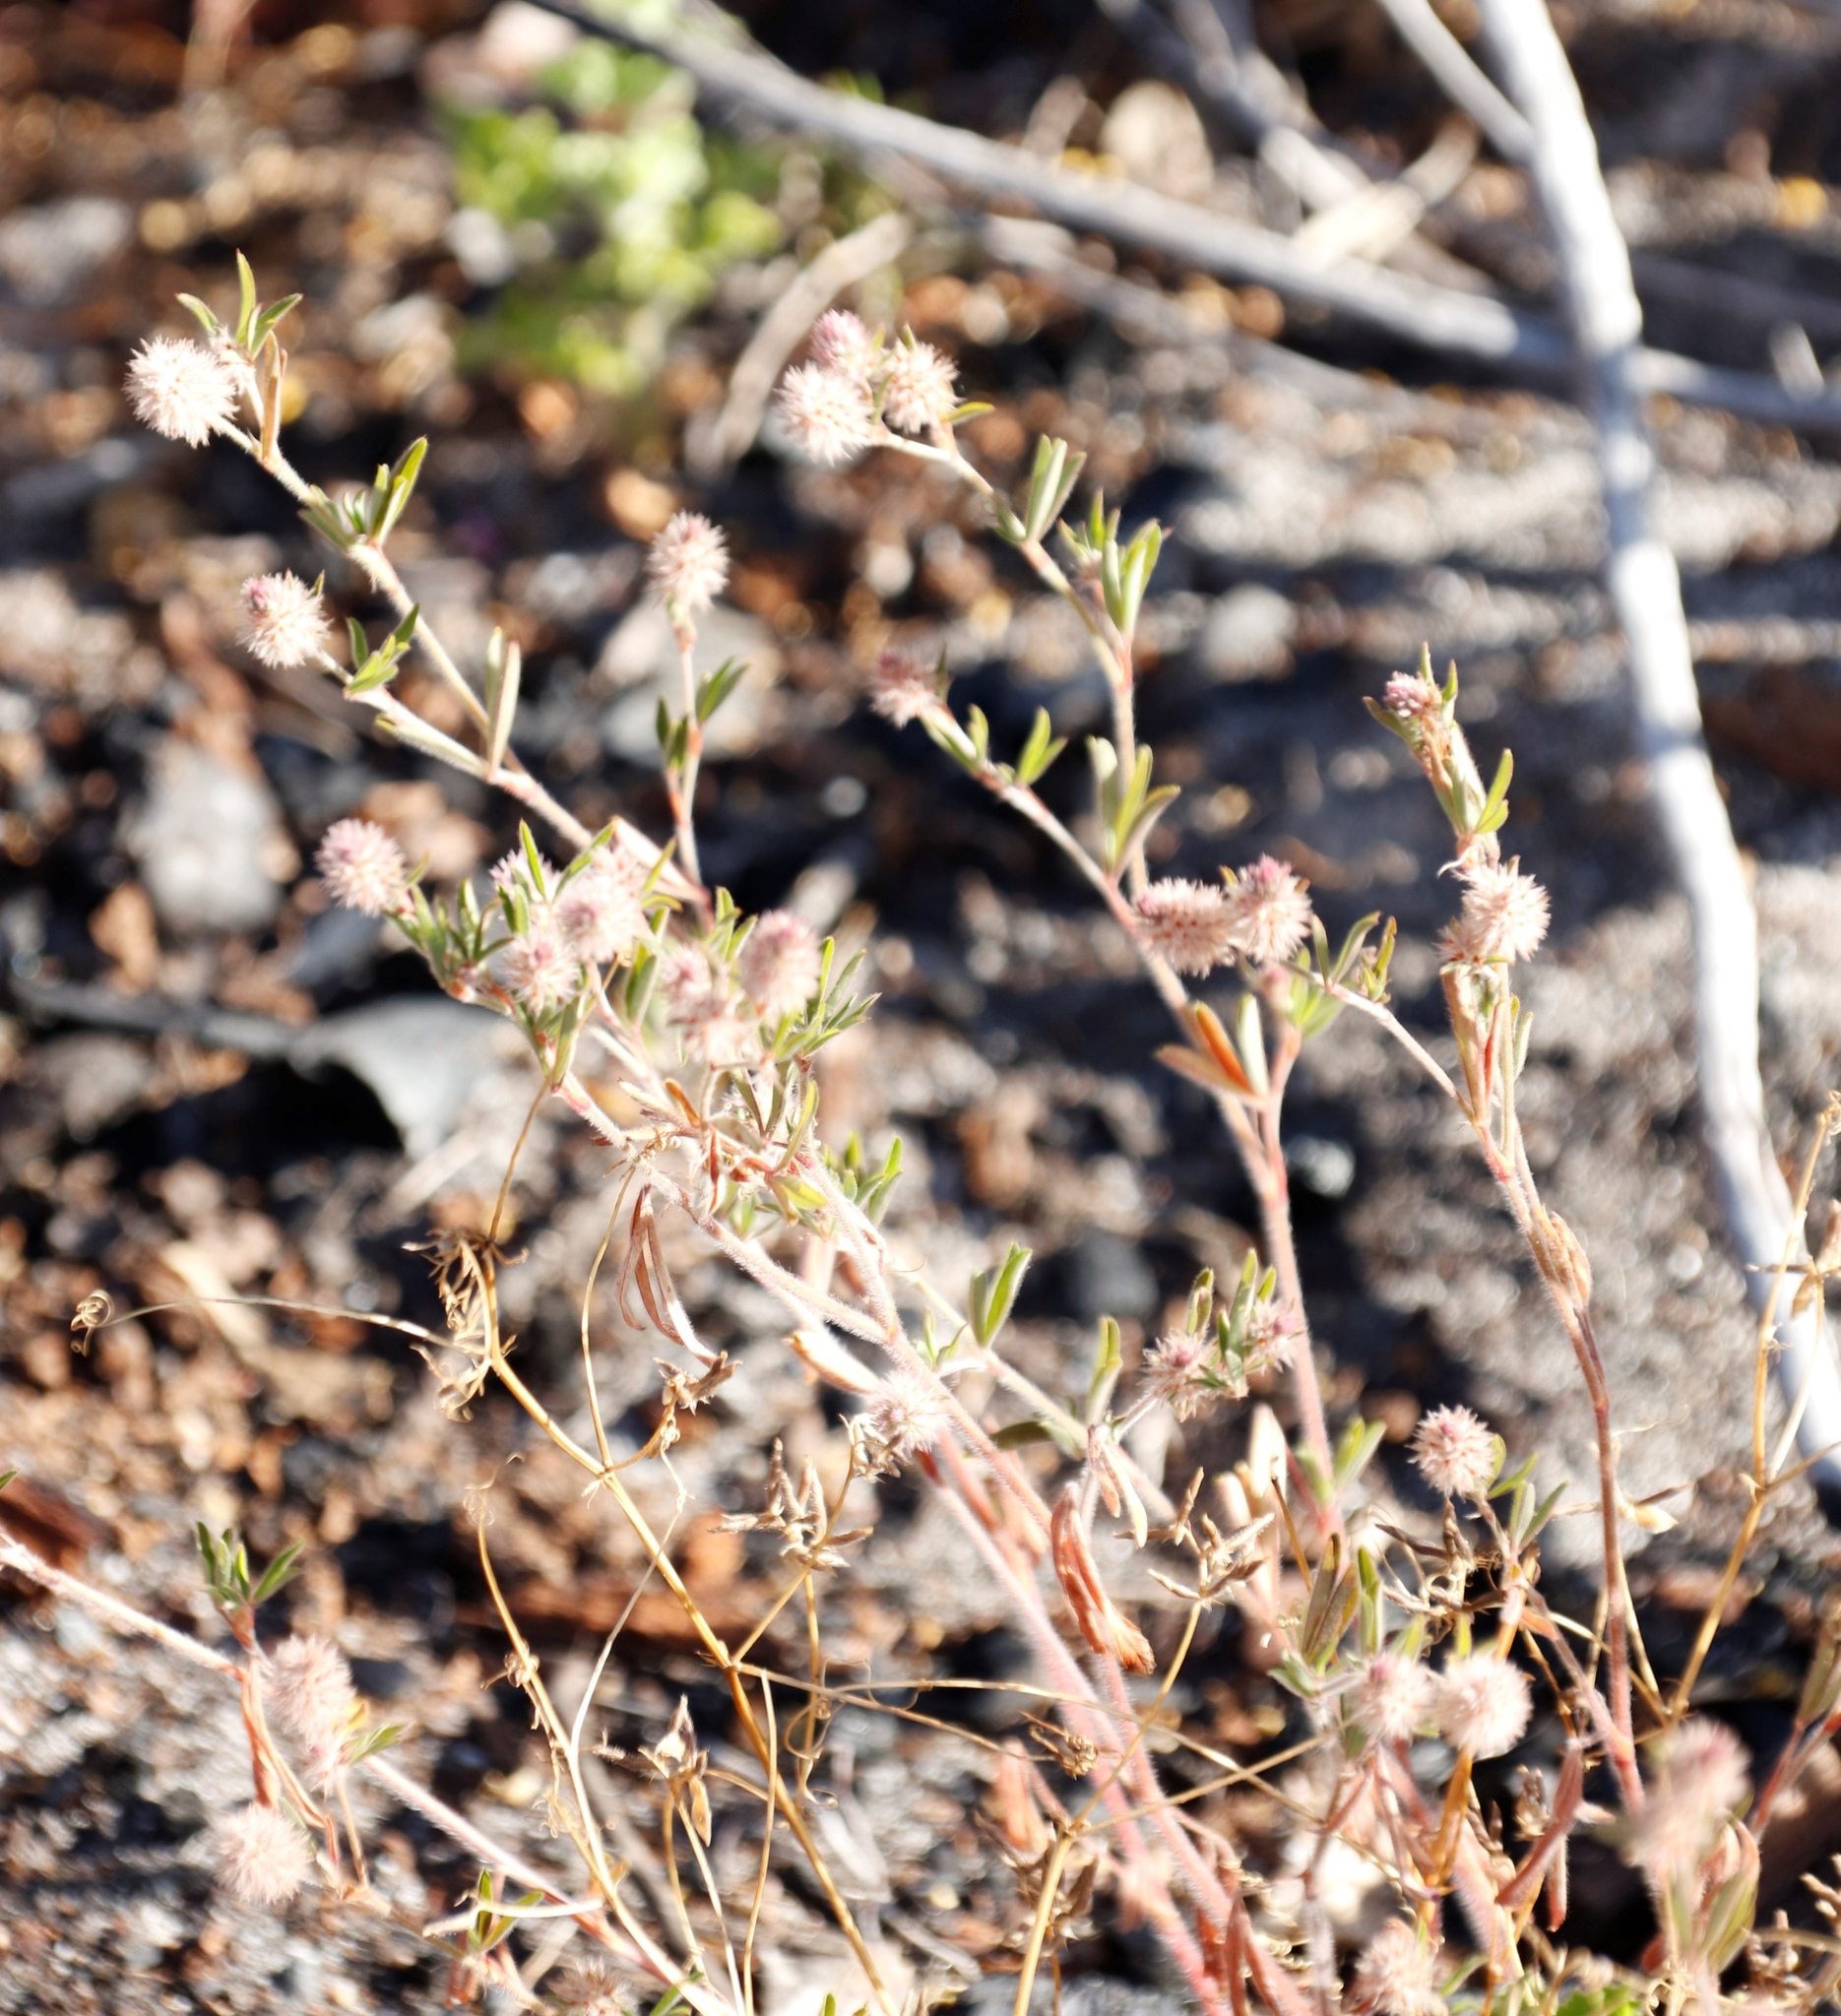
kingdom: Plantae
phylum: Tracheophyta
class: Magnoliopsida
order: Fabales
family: Fabaceae
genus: Trifolium
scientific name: Trifolium arvense
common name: Hare's-foot clover
